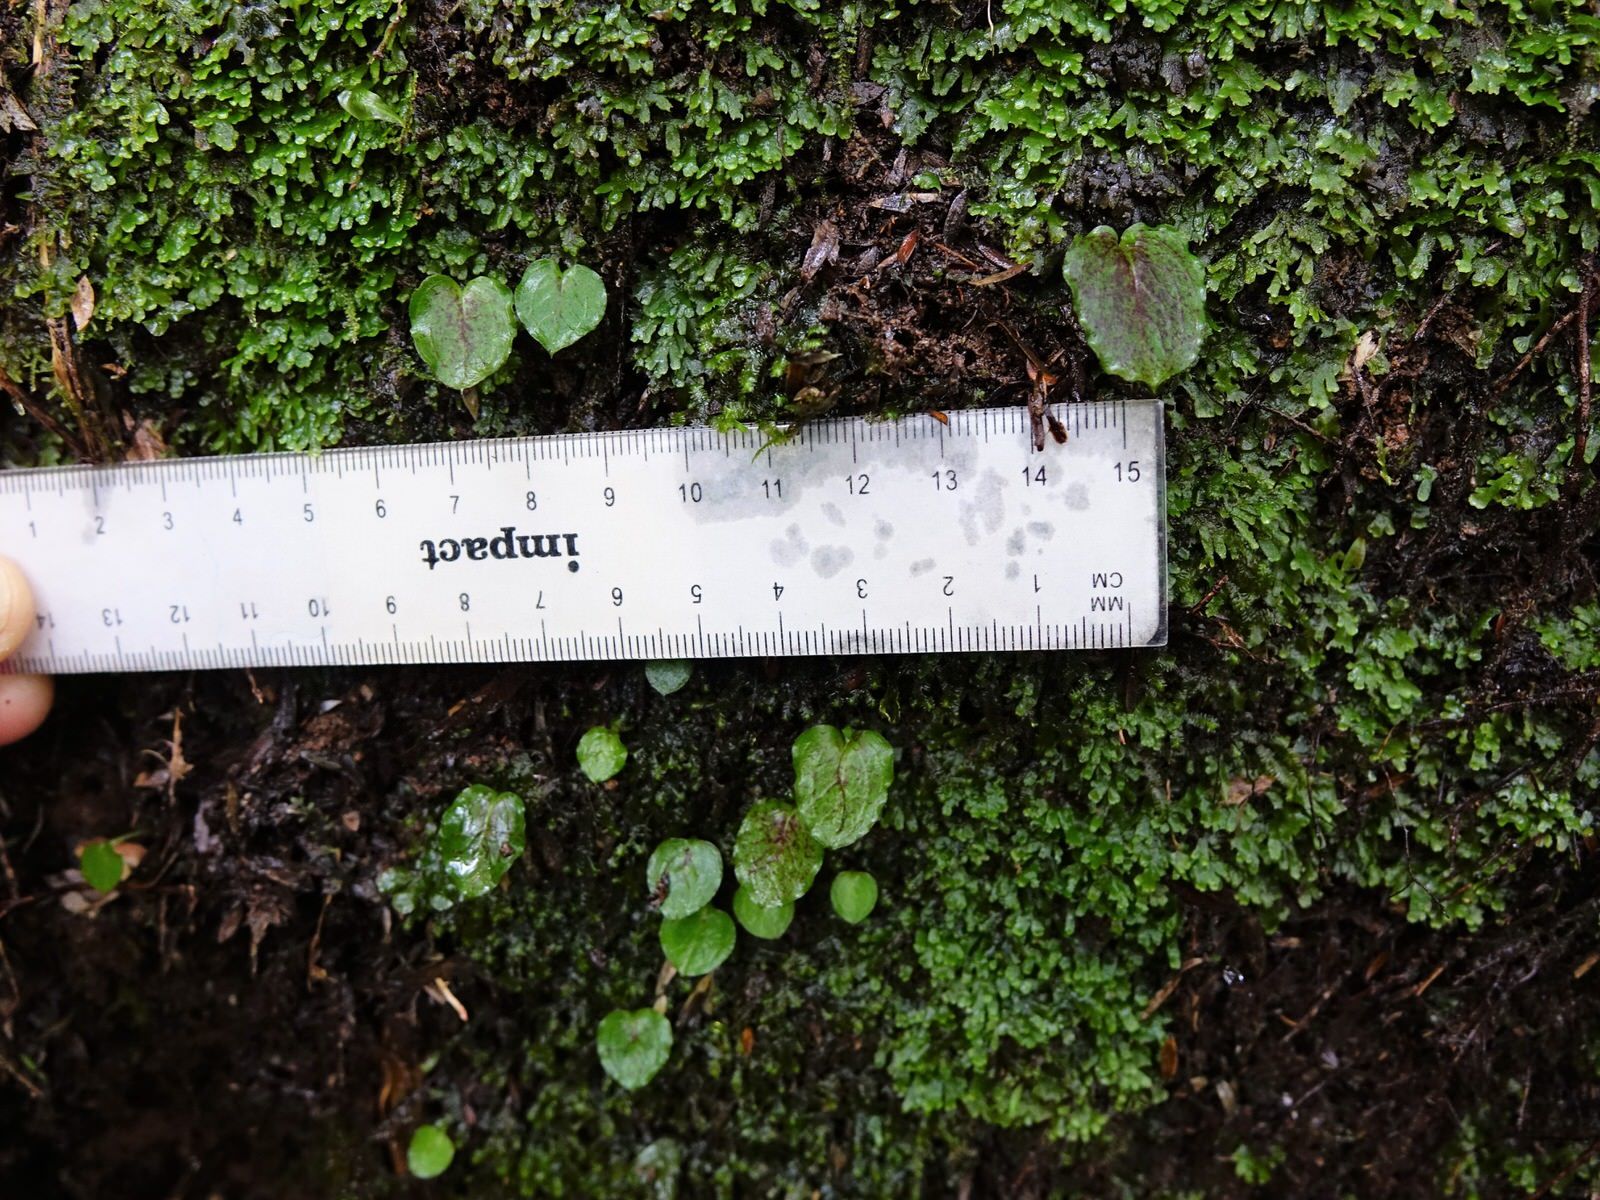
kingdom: Plantae
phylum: Tracheophyta
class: Liliopsida
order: Asparagales
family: Orchidaceae
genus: Corybas
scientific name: Corybas oblongus
